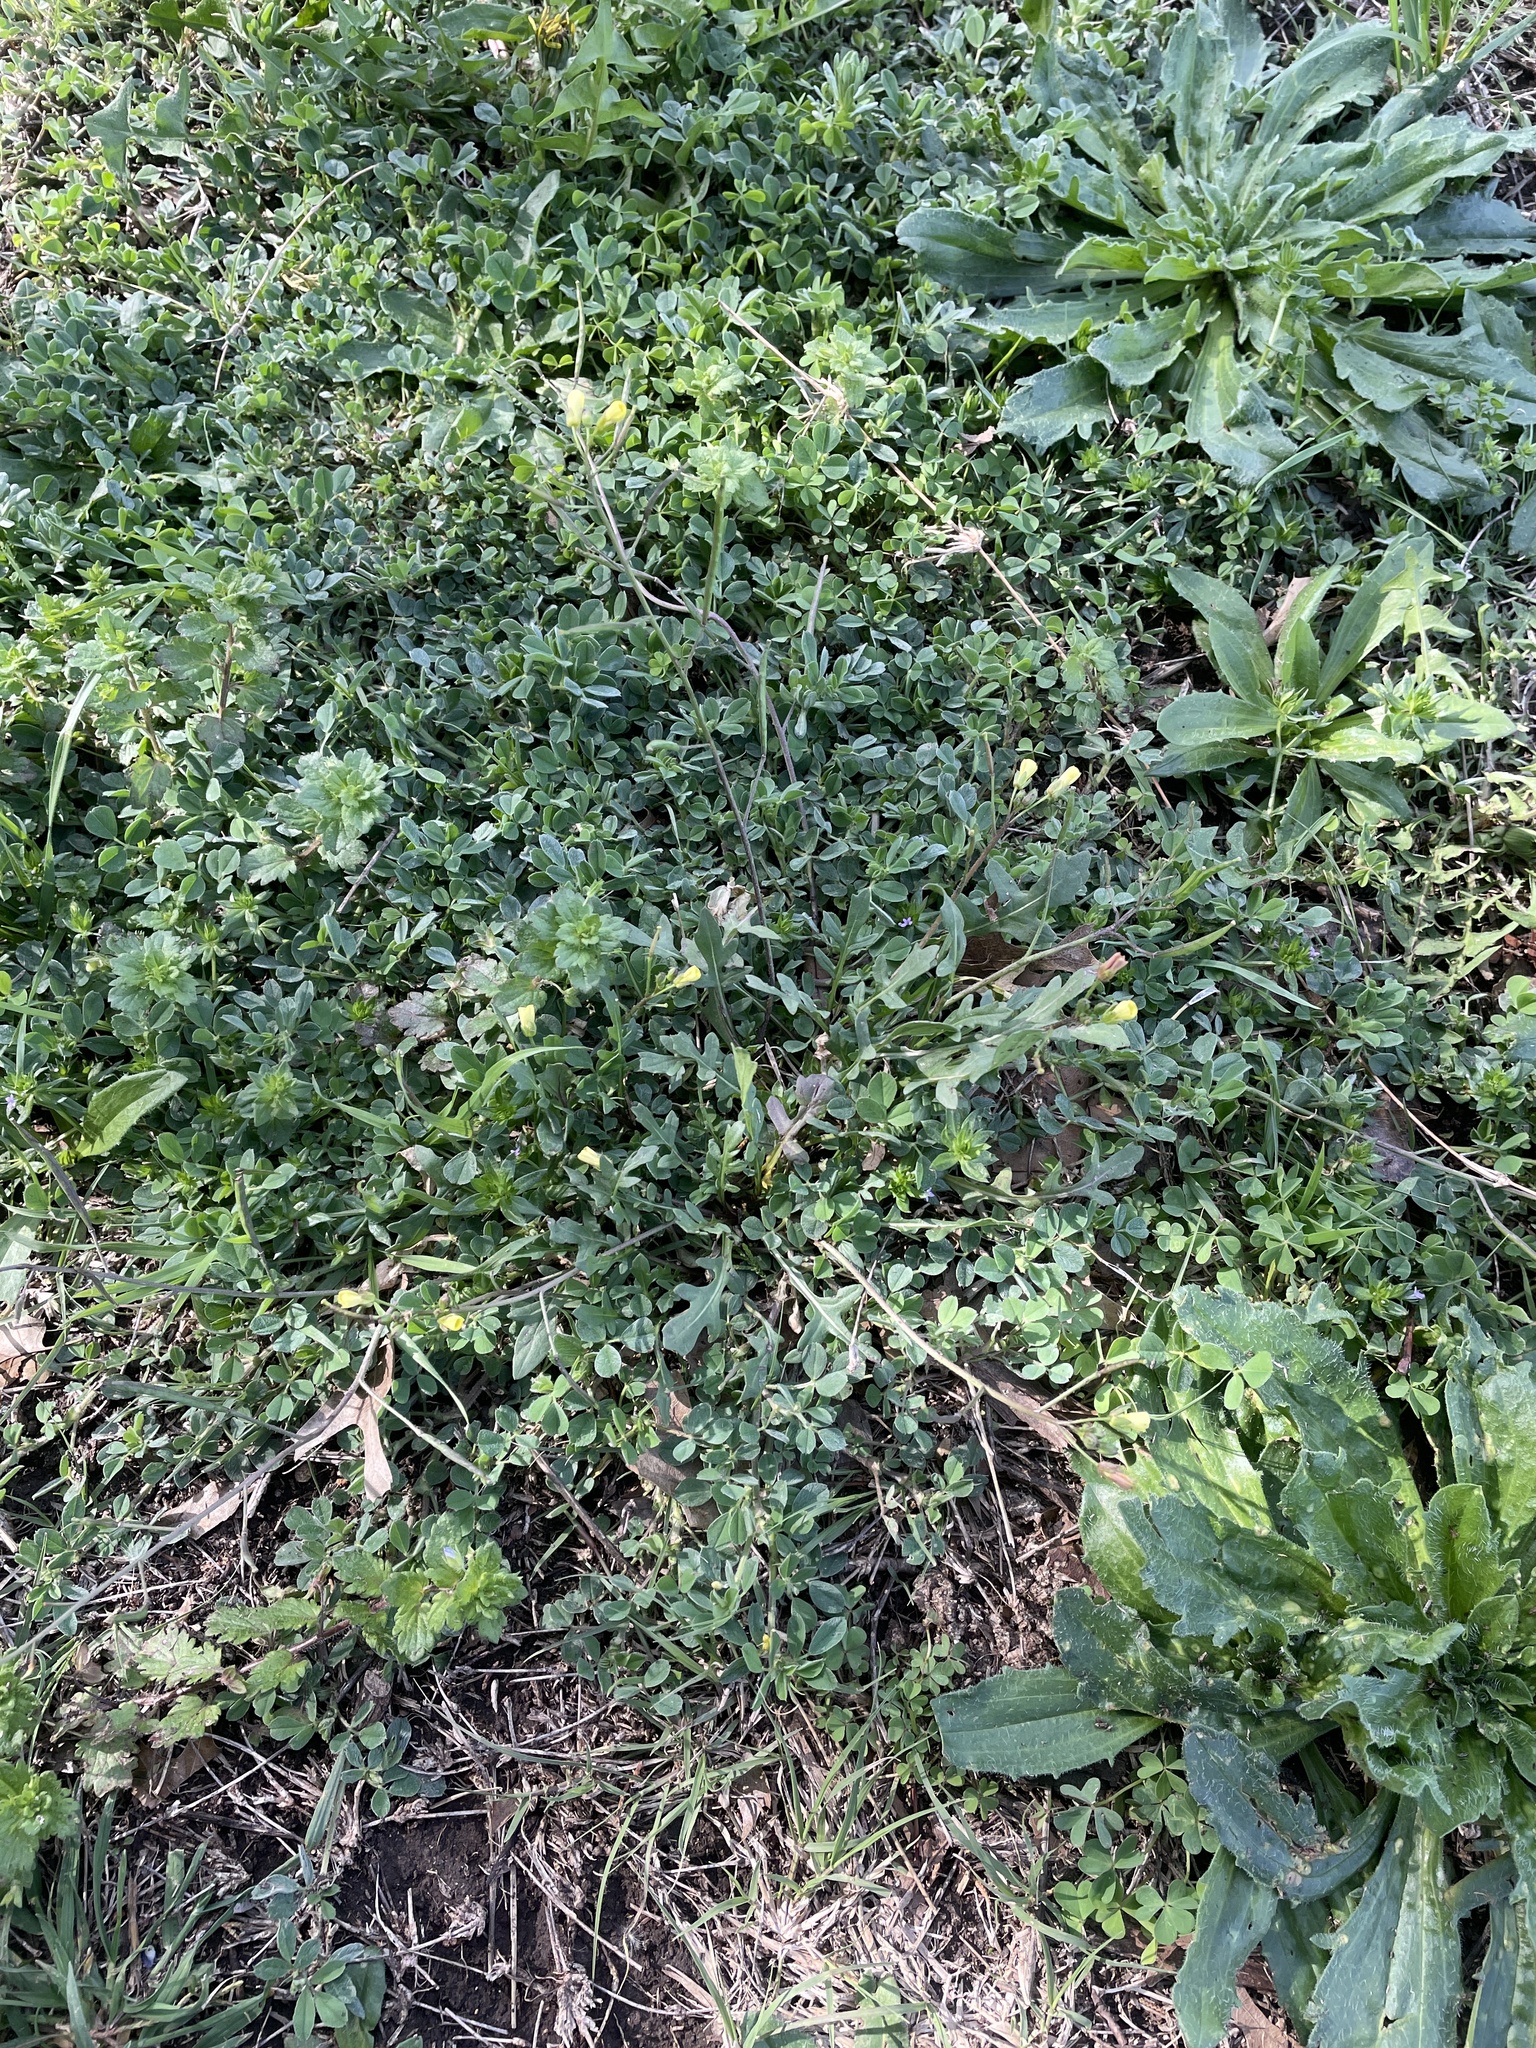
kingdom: Plantae
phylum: Tracheophyta
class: Magnoliopsida
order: Brassicales
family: Brassicaceae
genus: Diplotaxis
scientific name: Diplotaxis muralis
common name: Annual wall-rocket
